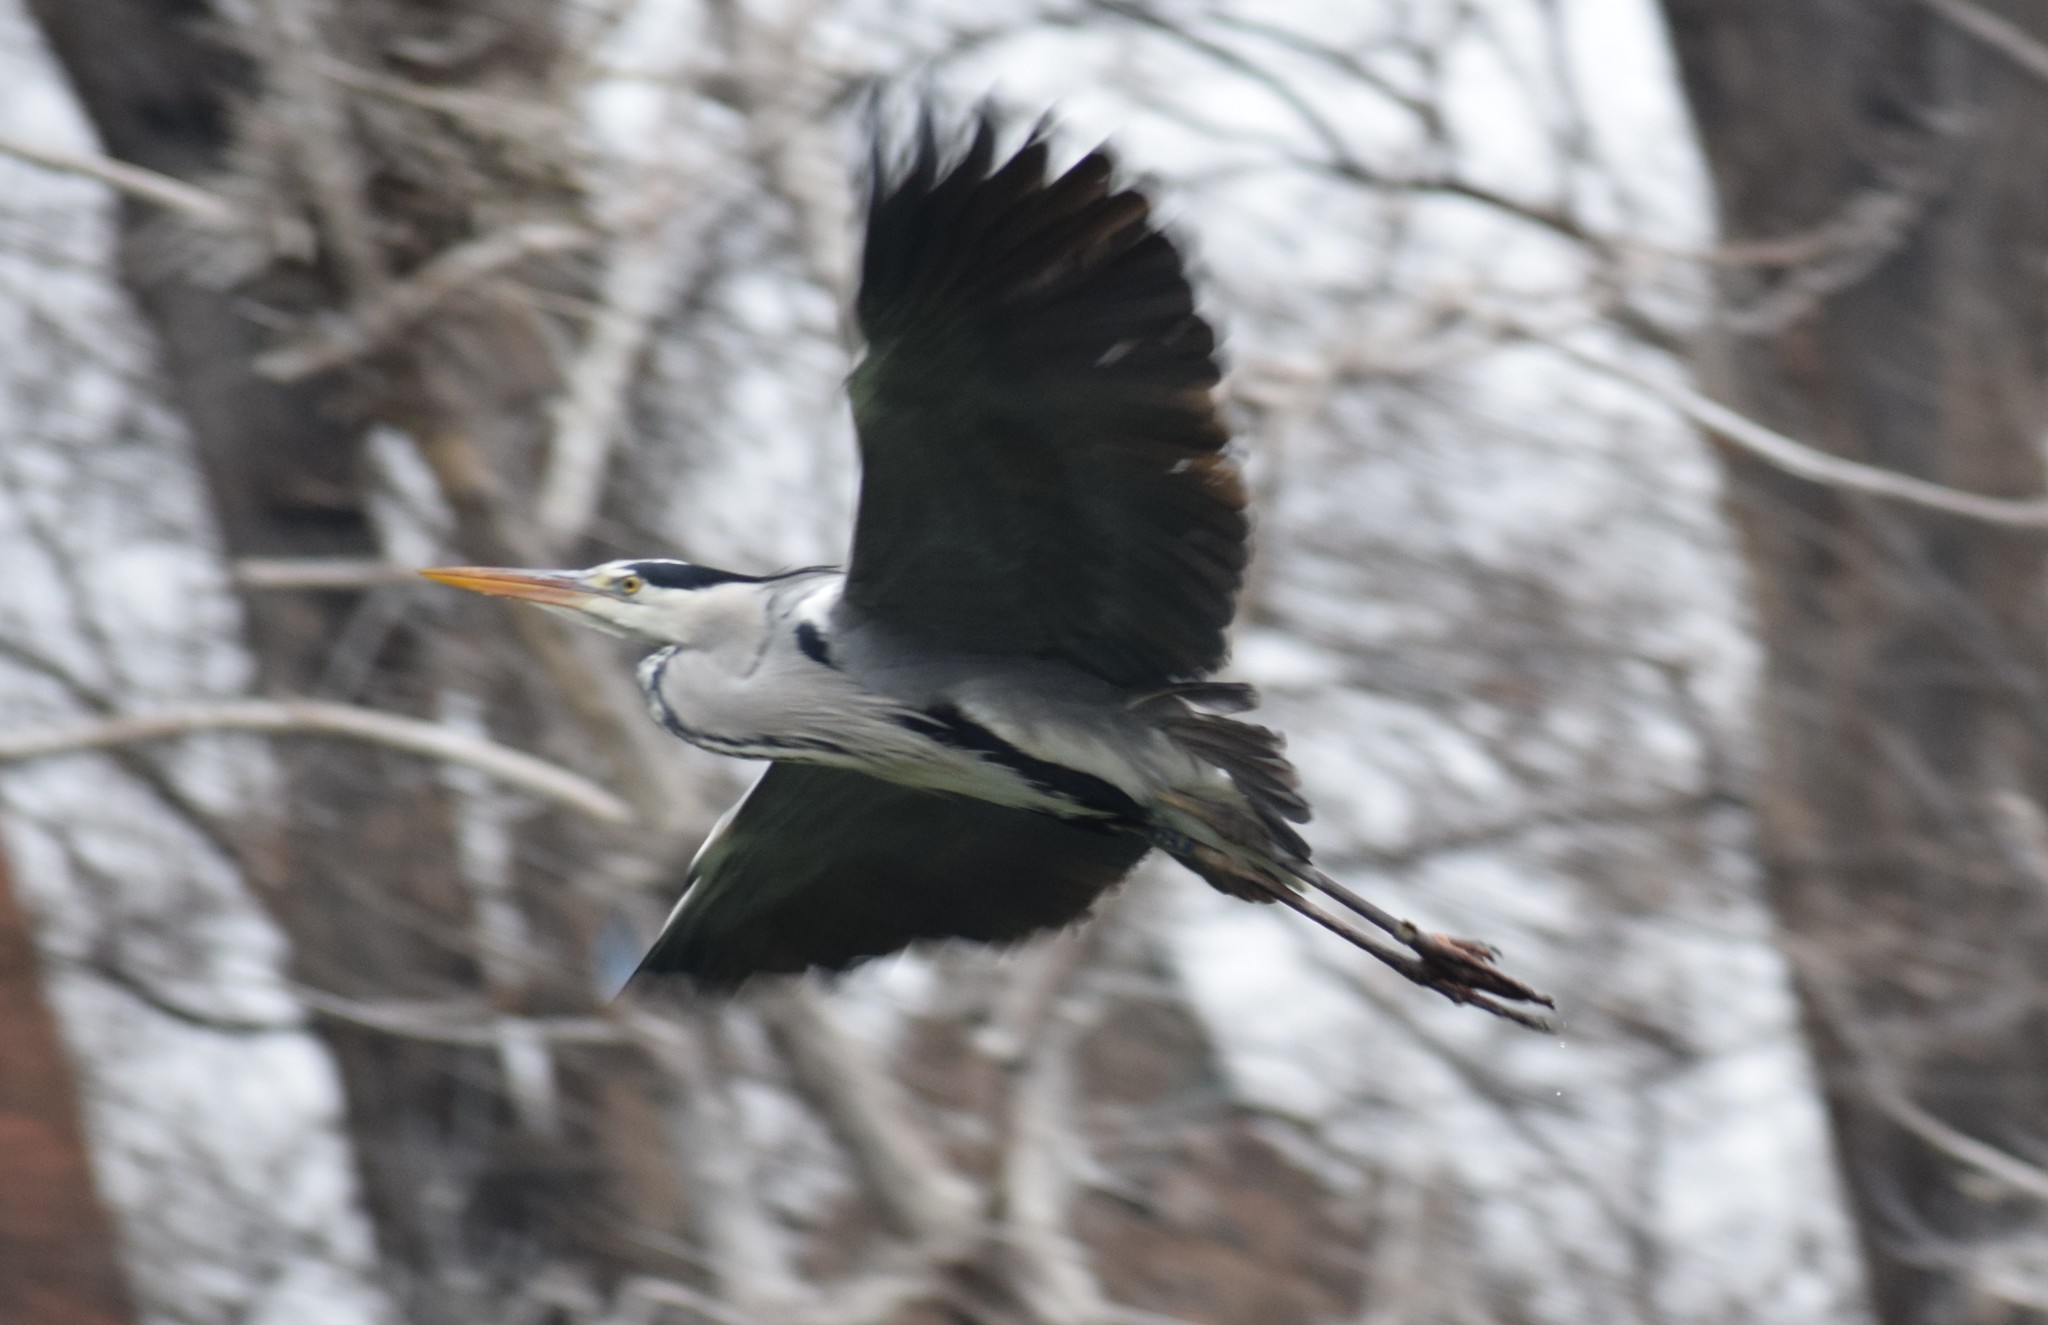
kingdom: Animalia
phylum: Chordata
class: Aves
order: Pelecaniformes
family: Ardeidae
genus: Ardea
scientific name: Ardea cinerea
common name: Grey heron
